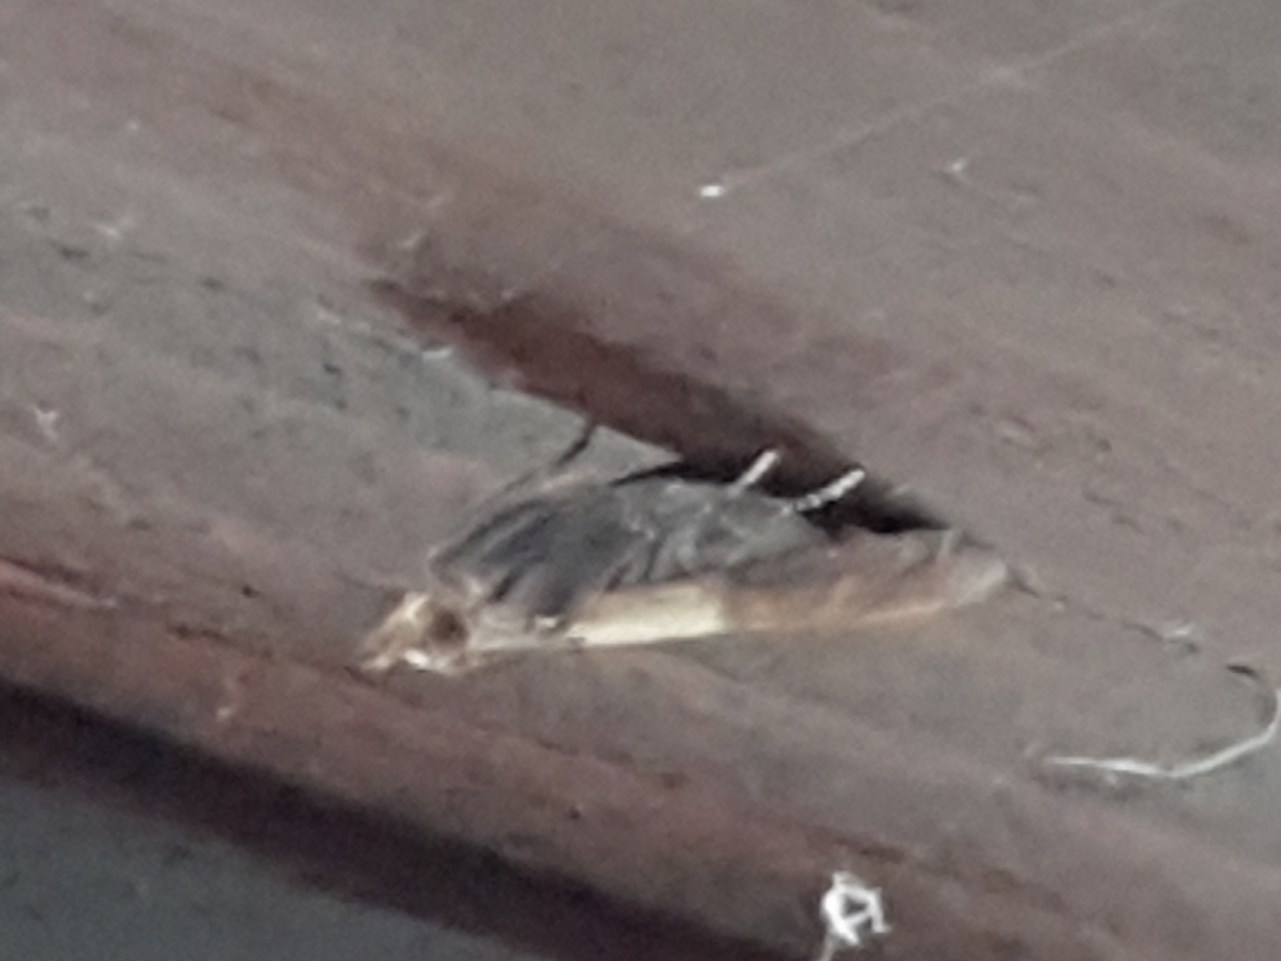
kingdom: Animalia
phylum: Arthropoda
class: Insecta
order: Lepidoptera
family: Pyralidae
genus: Plodia
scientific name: Plodia interpunctella
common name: Indian meal moth
